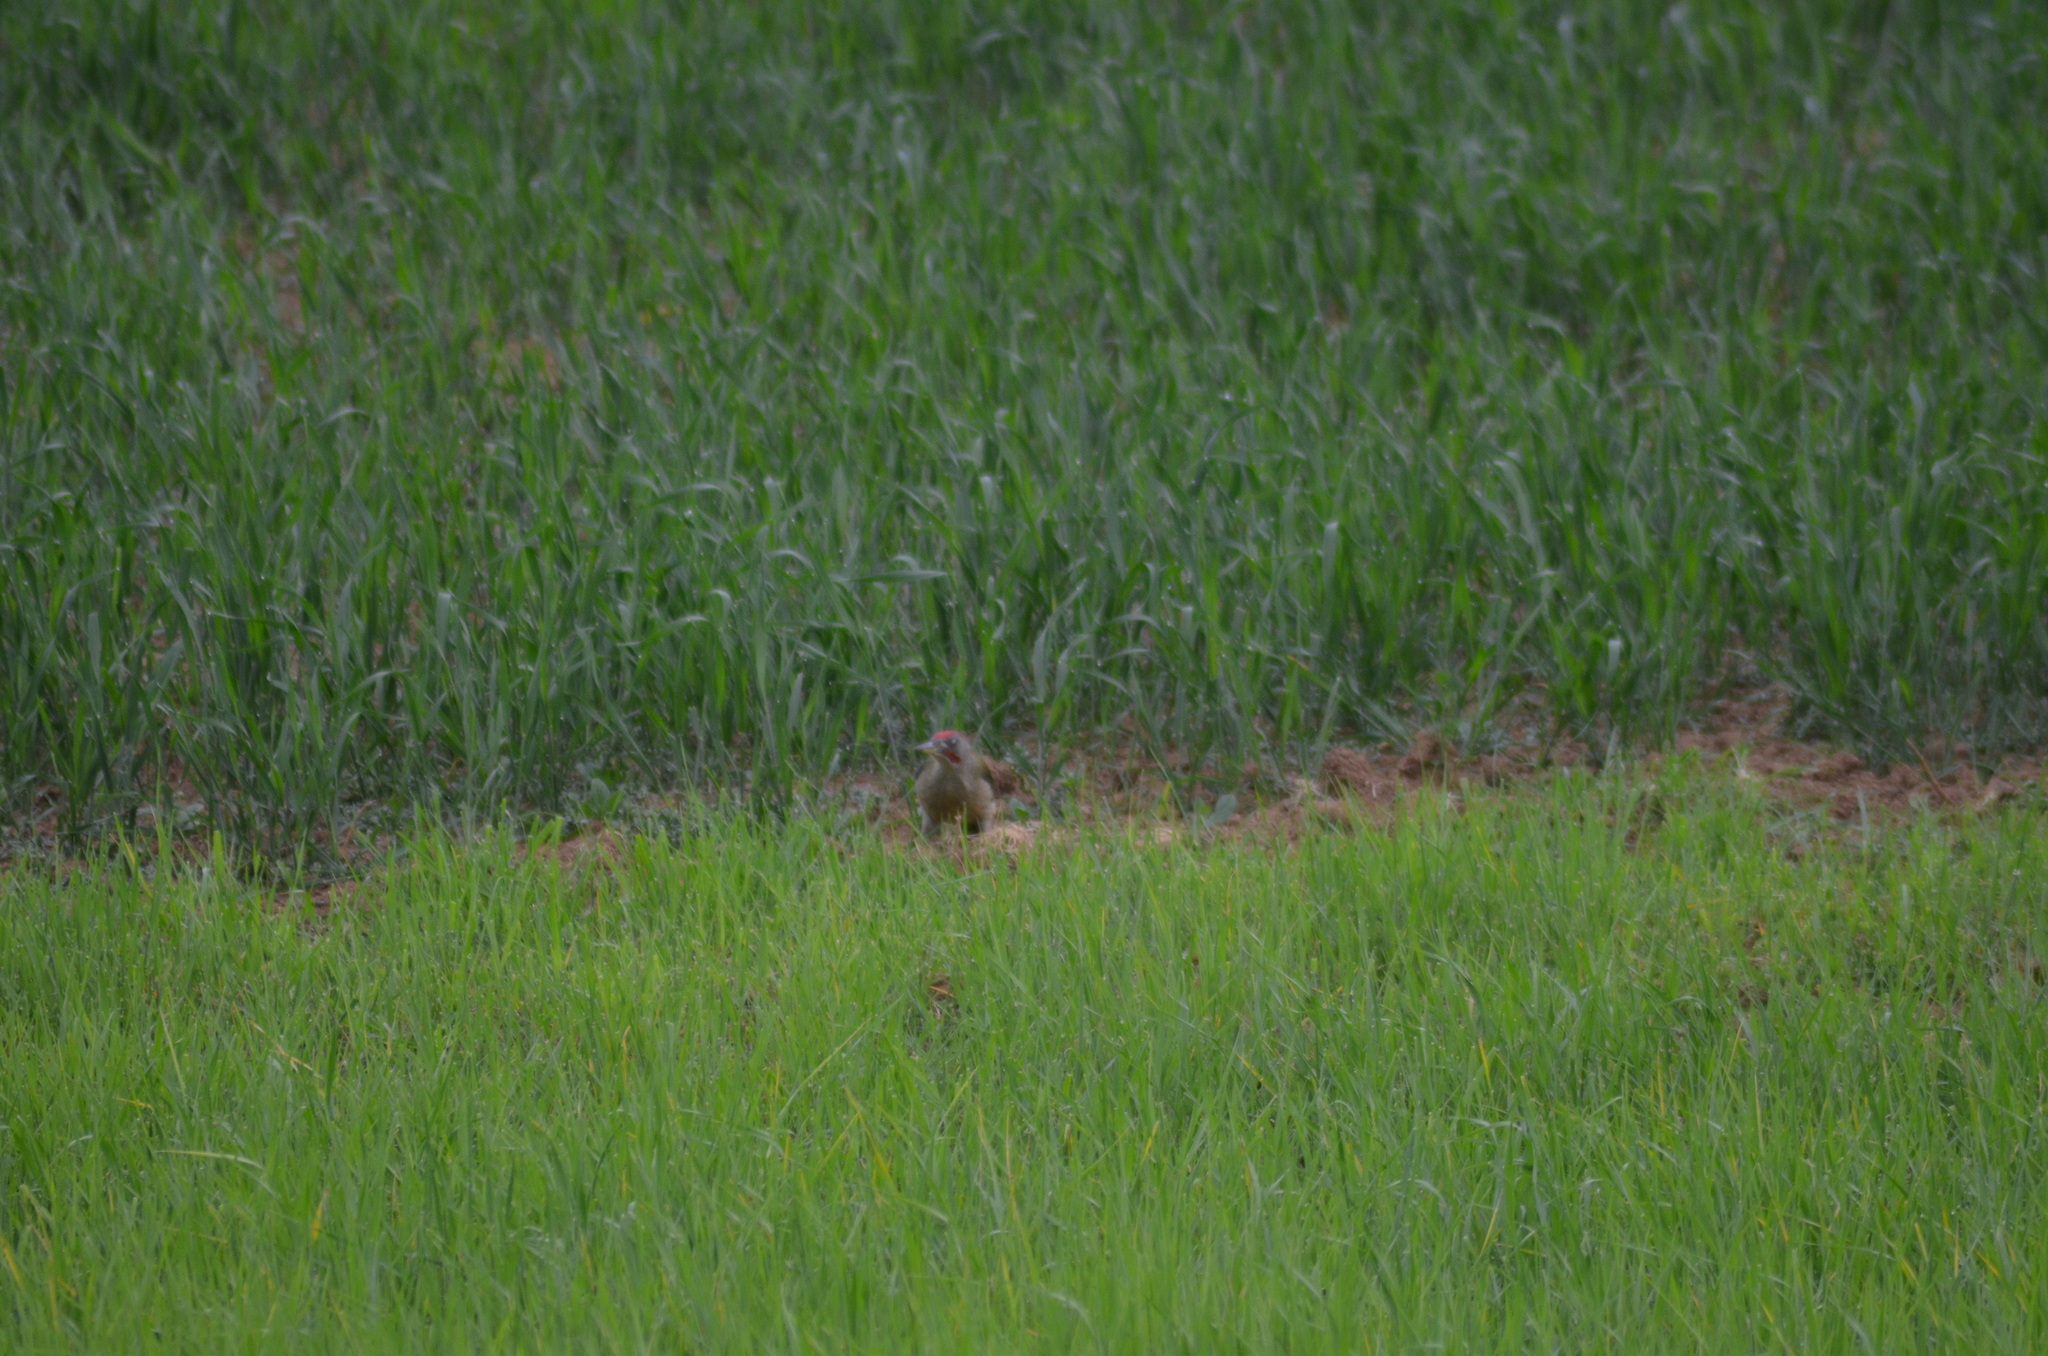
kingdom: Animalia
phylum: Chordata
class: Aves
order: Piciformes
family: Picidae
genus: Picus
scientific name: Picus sharpei
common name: Iberian green woodpecker
